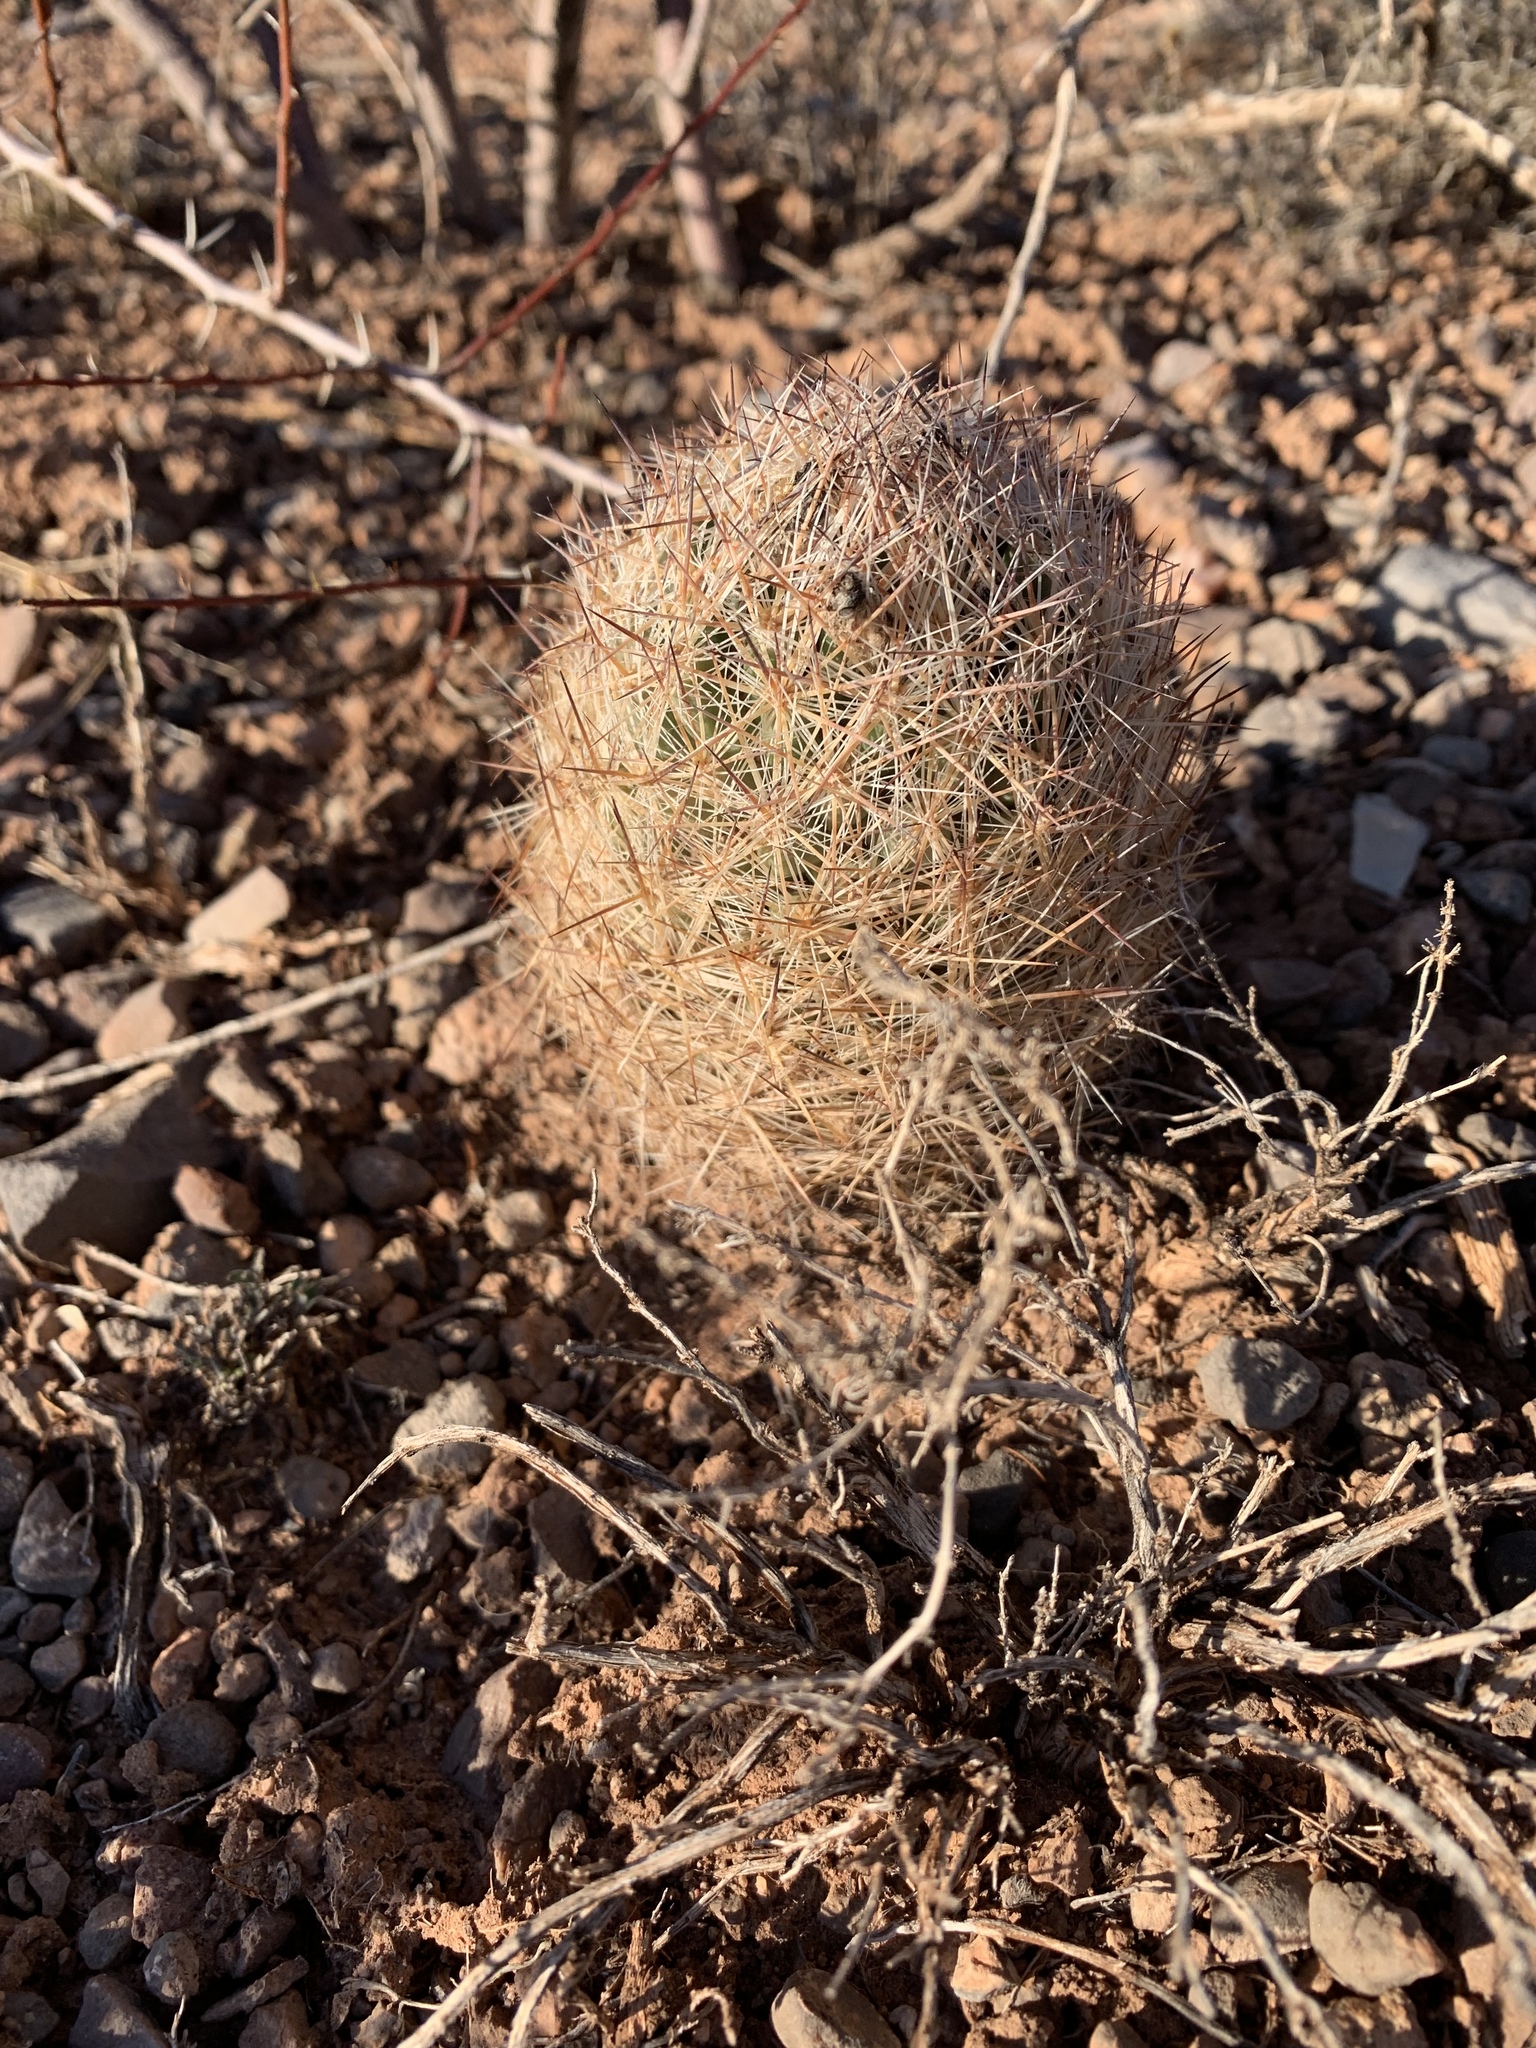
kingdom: Plantae
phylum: Tracheophyta
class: Magnoliopsida
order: Caryophyllales
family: Cactaceae
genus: Pelecyphora
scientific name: Pelecyphora vivipara
